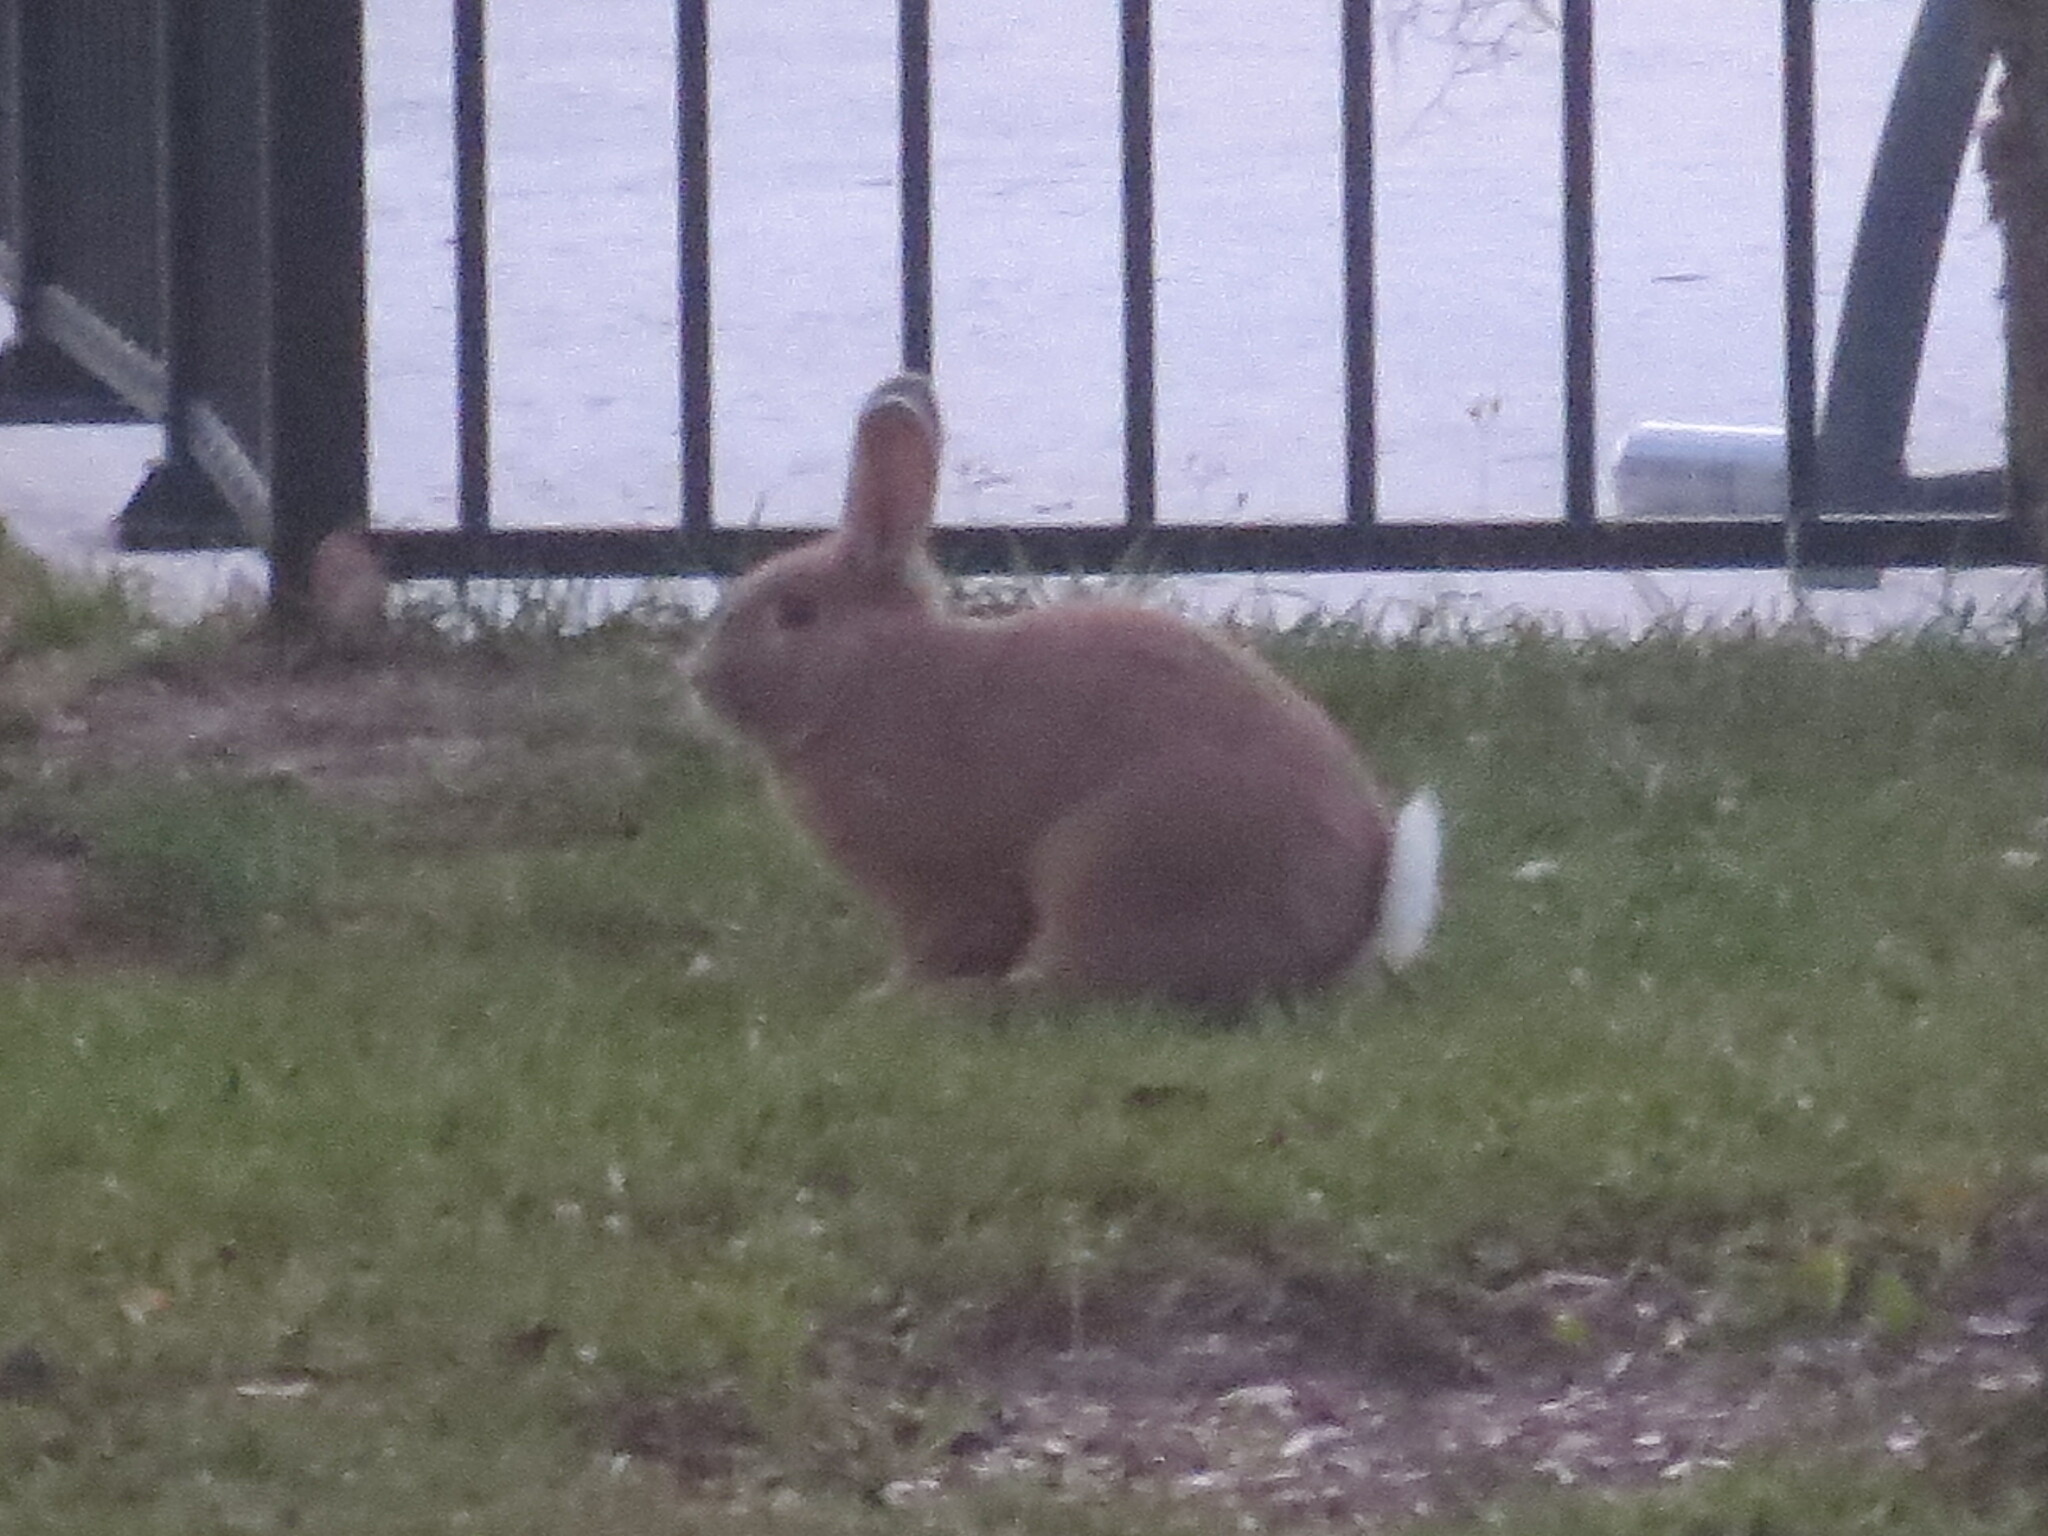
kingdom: Animalia
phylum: Chordata
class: Mammalia
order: Lagomorpha
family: Leporidae
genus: Oryctolagus
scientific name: Oryctolagus cuniculus
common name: European rabbit
